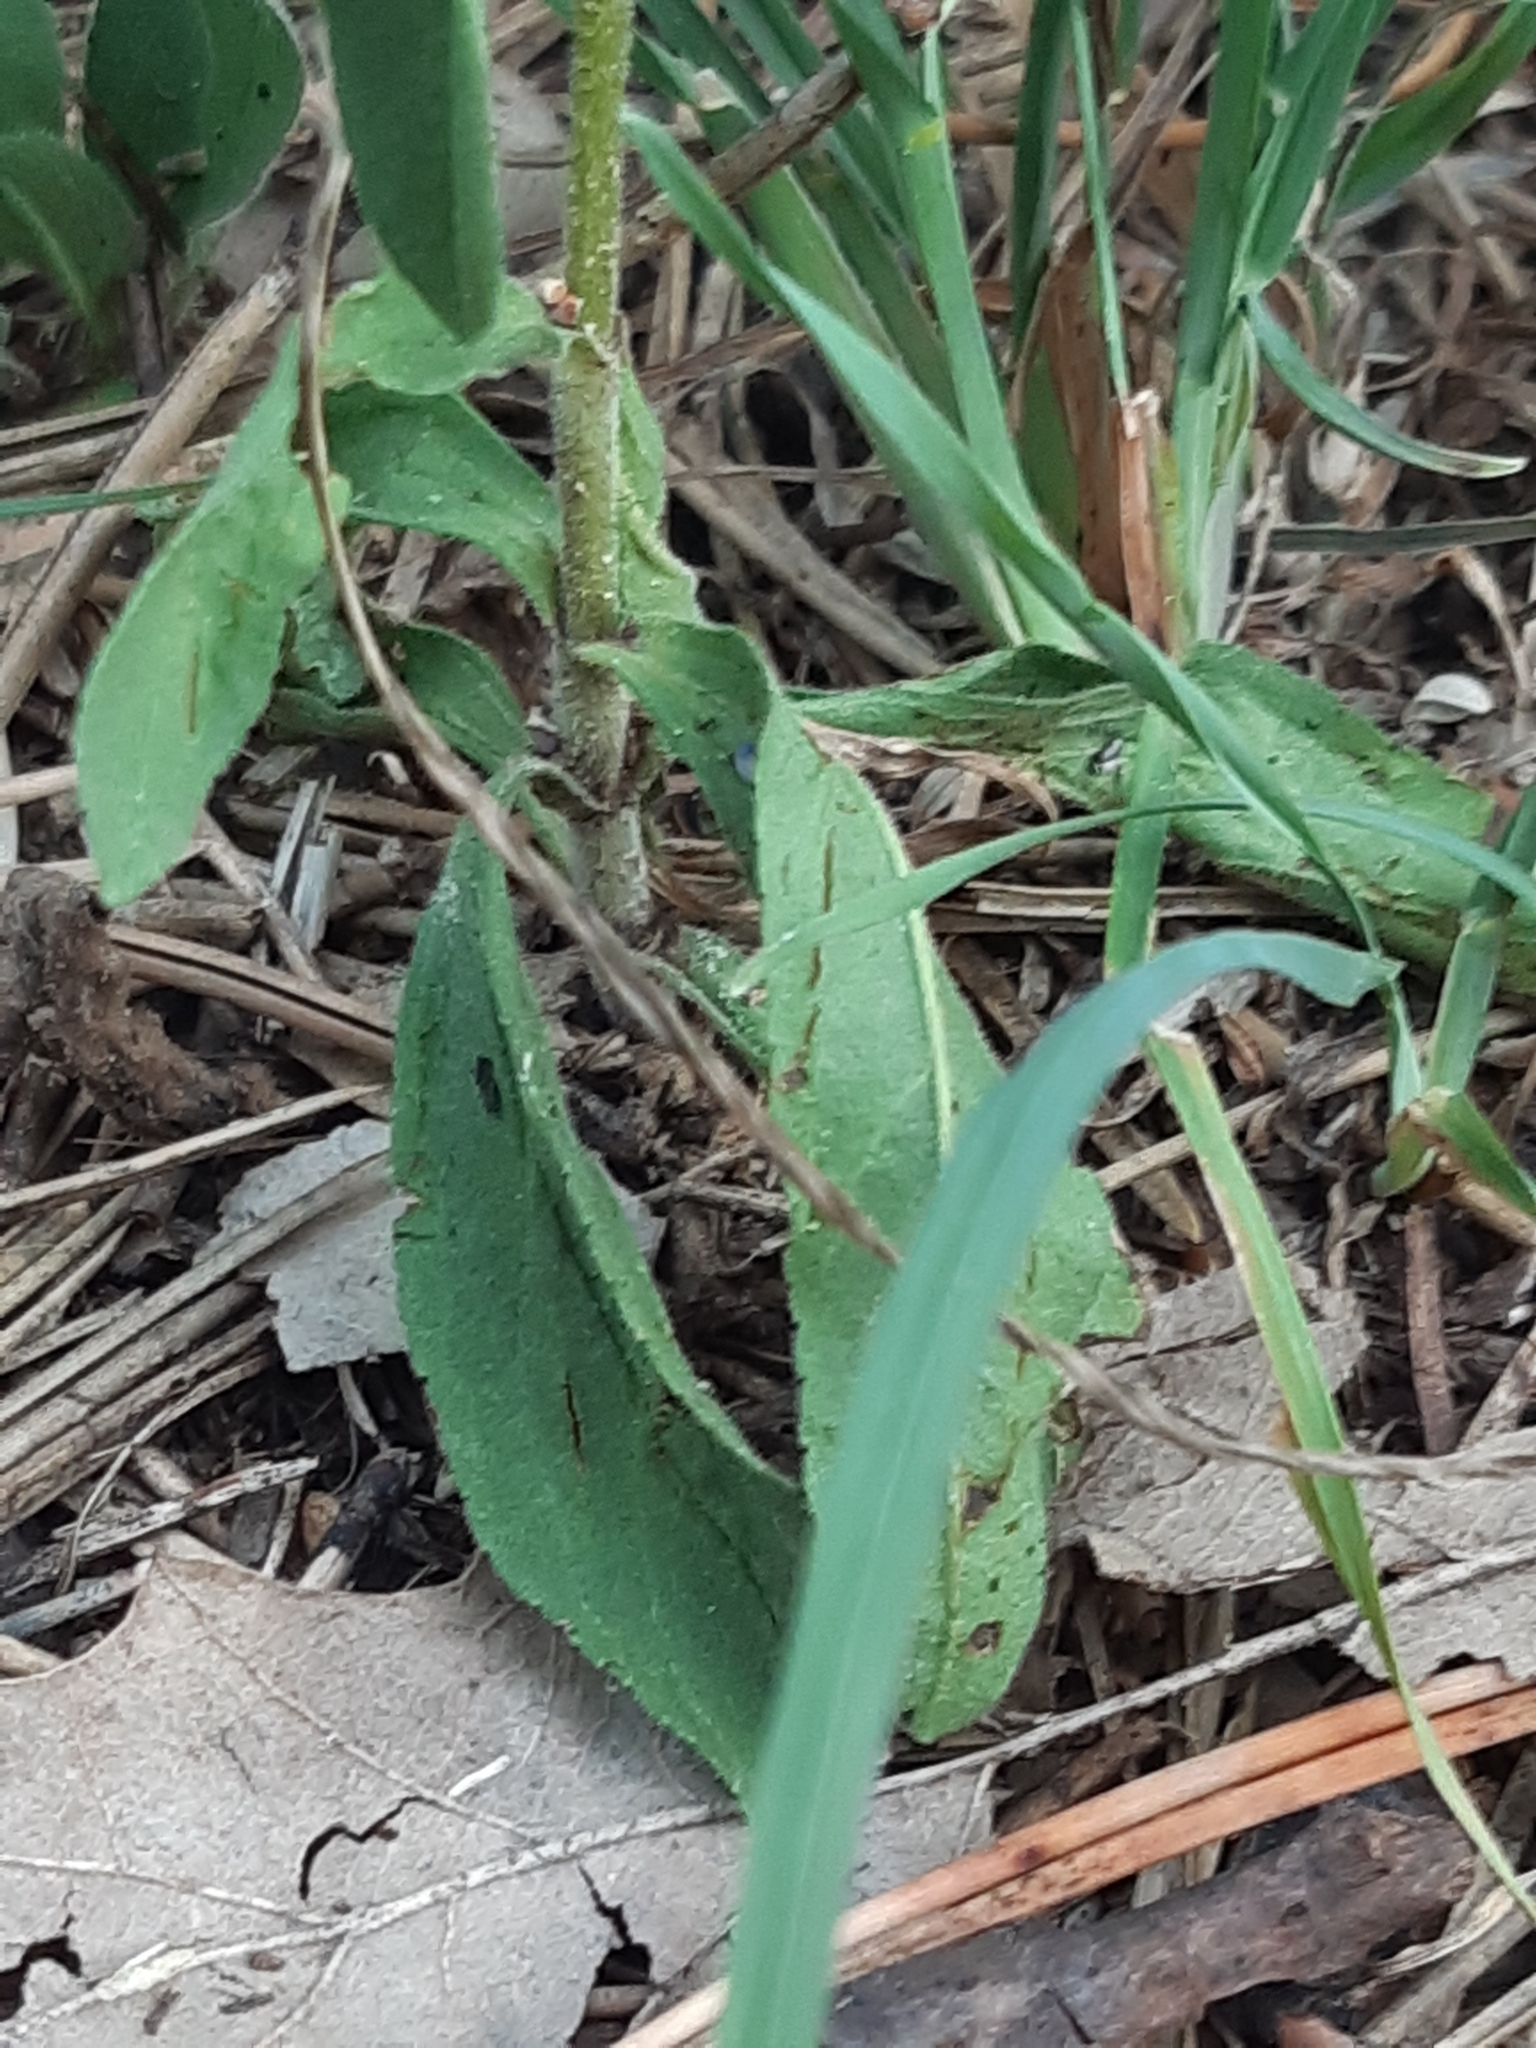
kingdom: Plantae
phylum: Tracheophyta
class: Magnoliopsida
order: Lamiales
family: Plantaginaceae
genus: Veronica
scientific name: Veronica spicata
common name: Spiked speedwell
